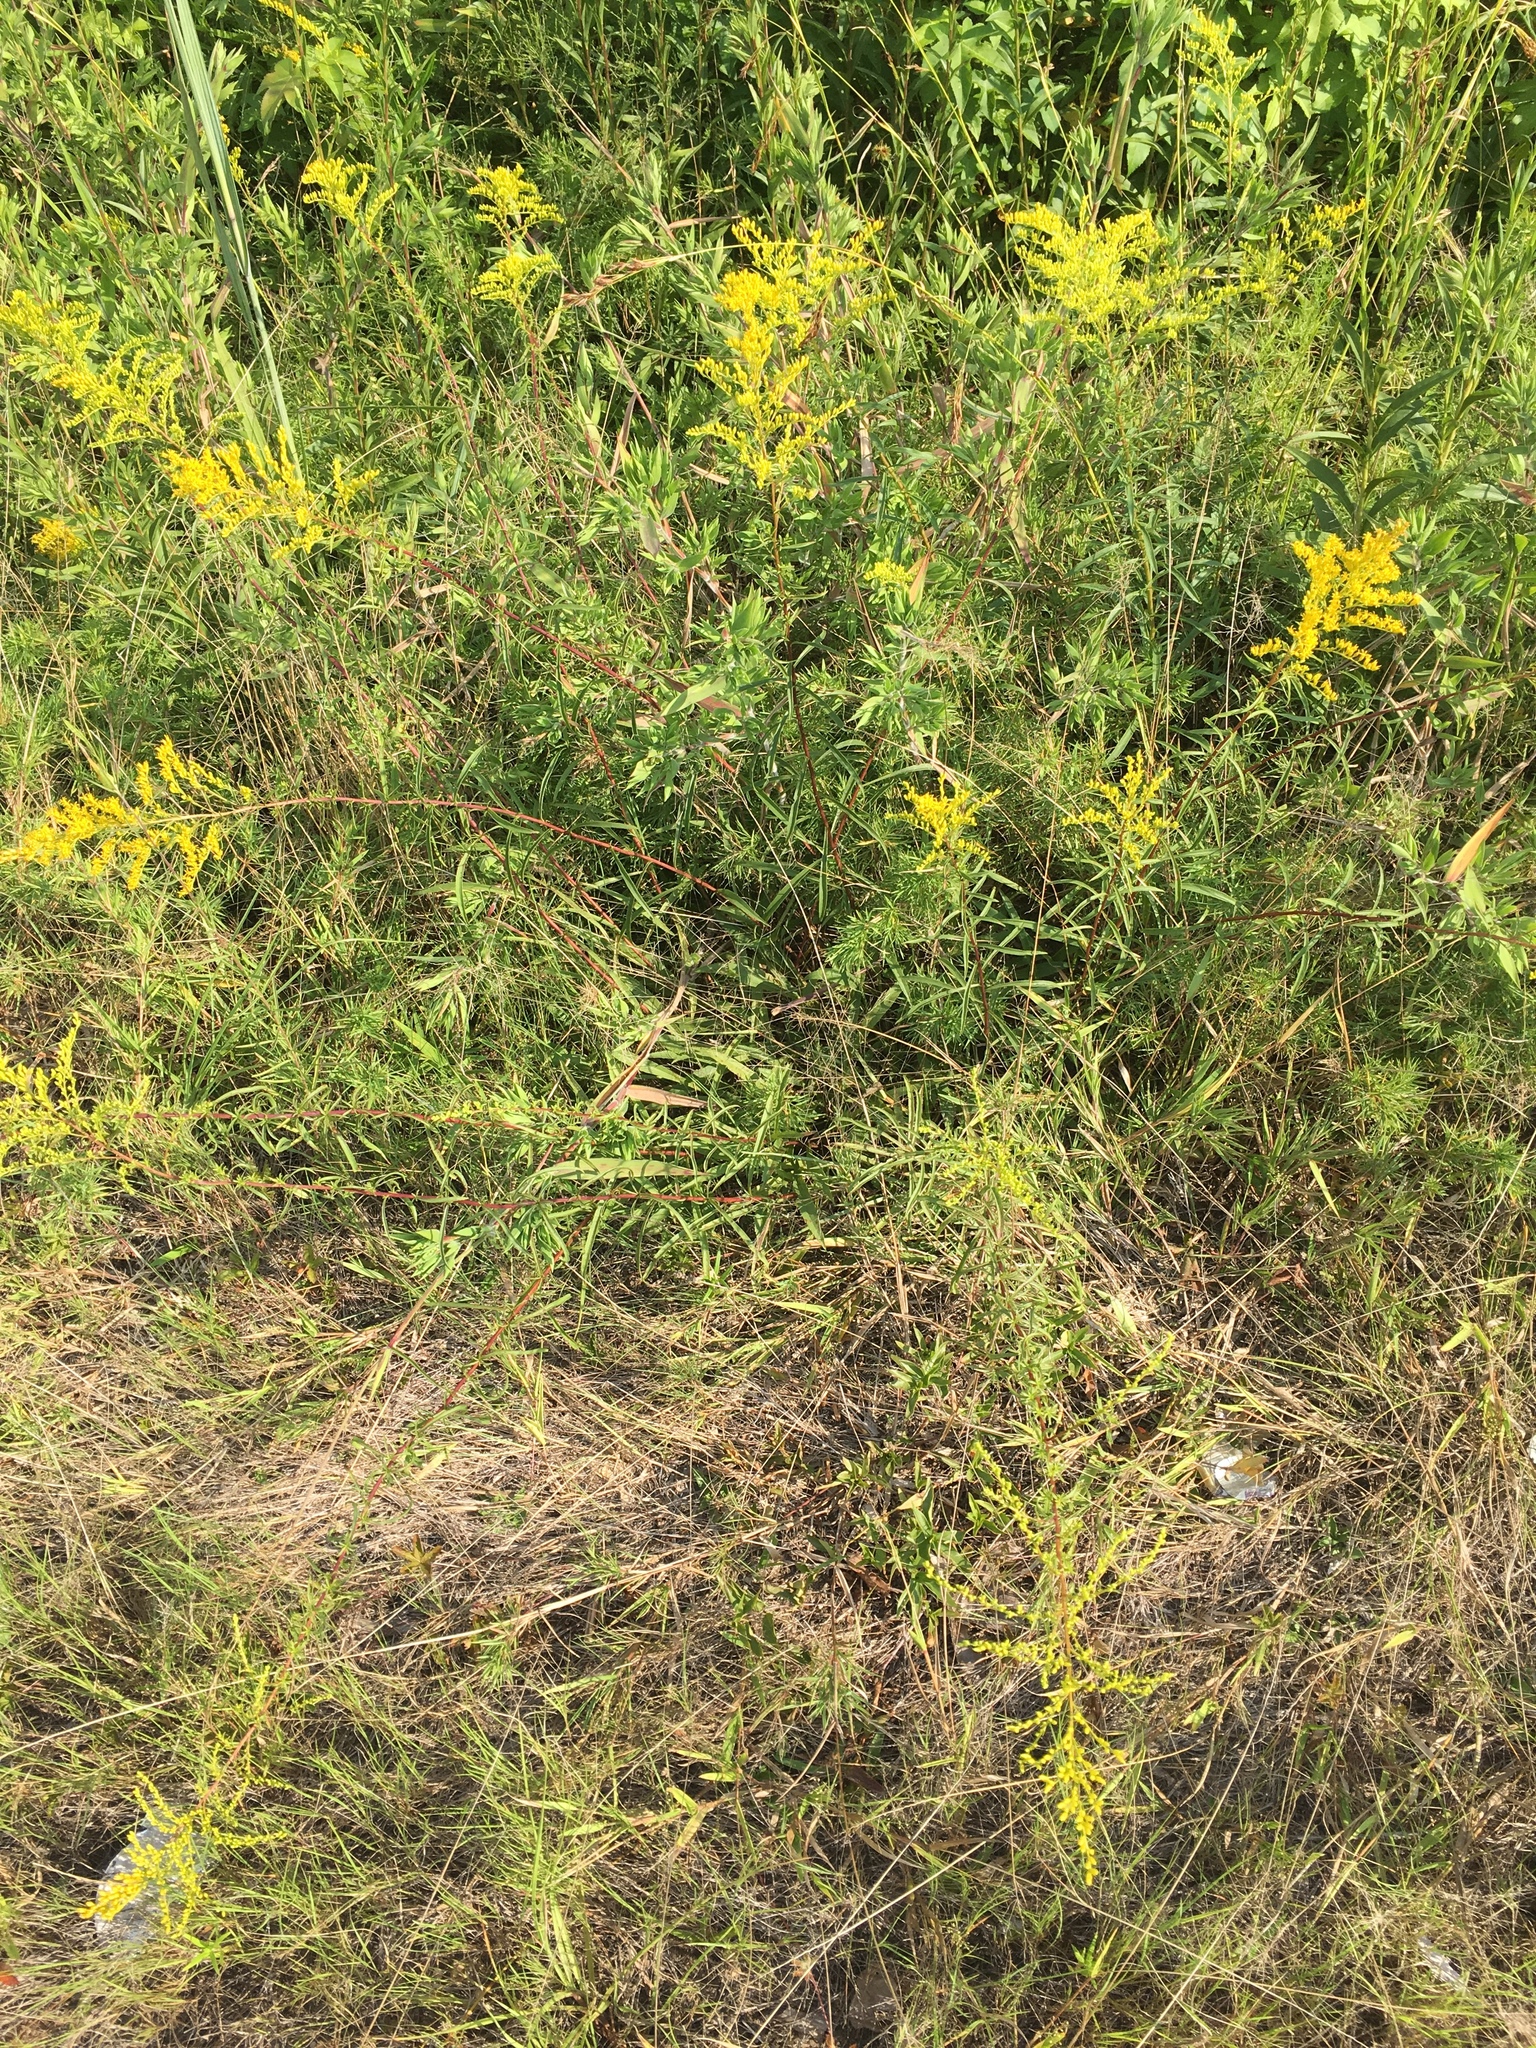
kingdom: Plantae
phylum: Tracheophyta
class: Magnoliopsida
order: Asterales
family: Asteraceae
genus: Solidago
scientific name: Solidago pinetorum
